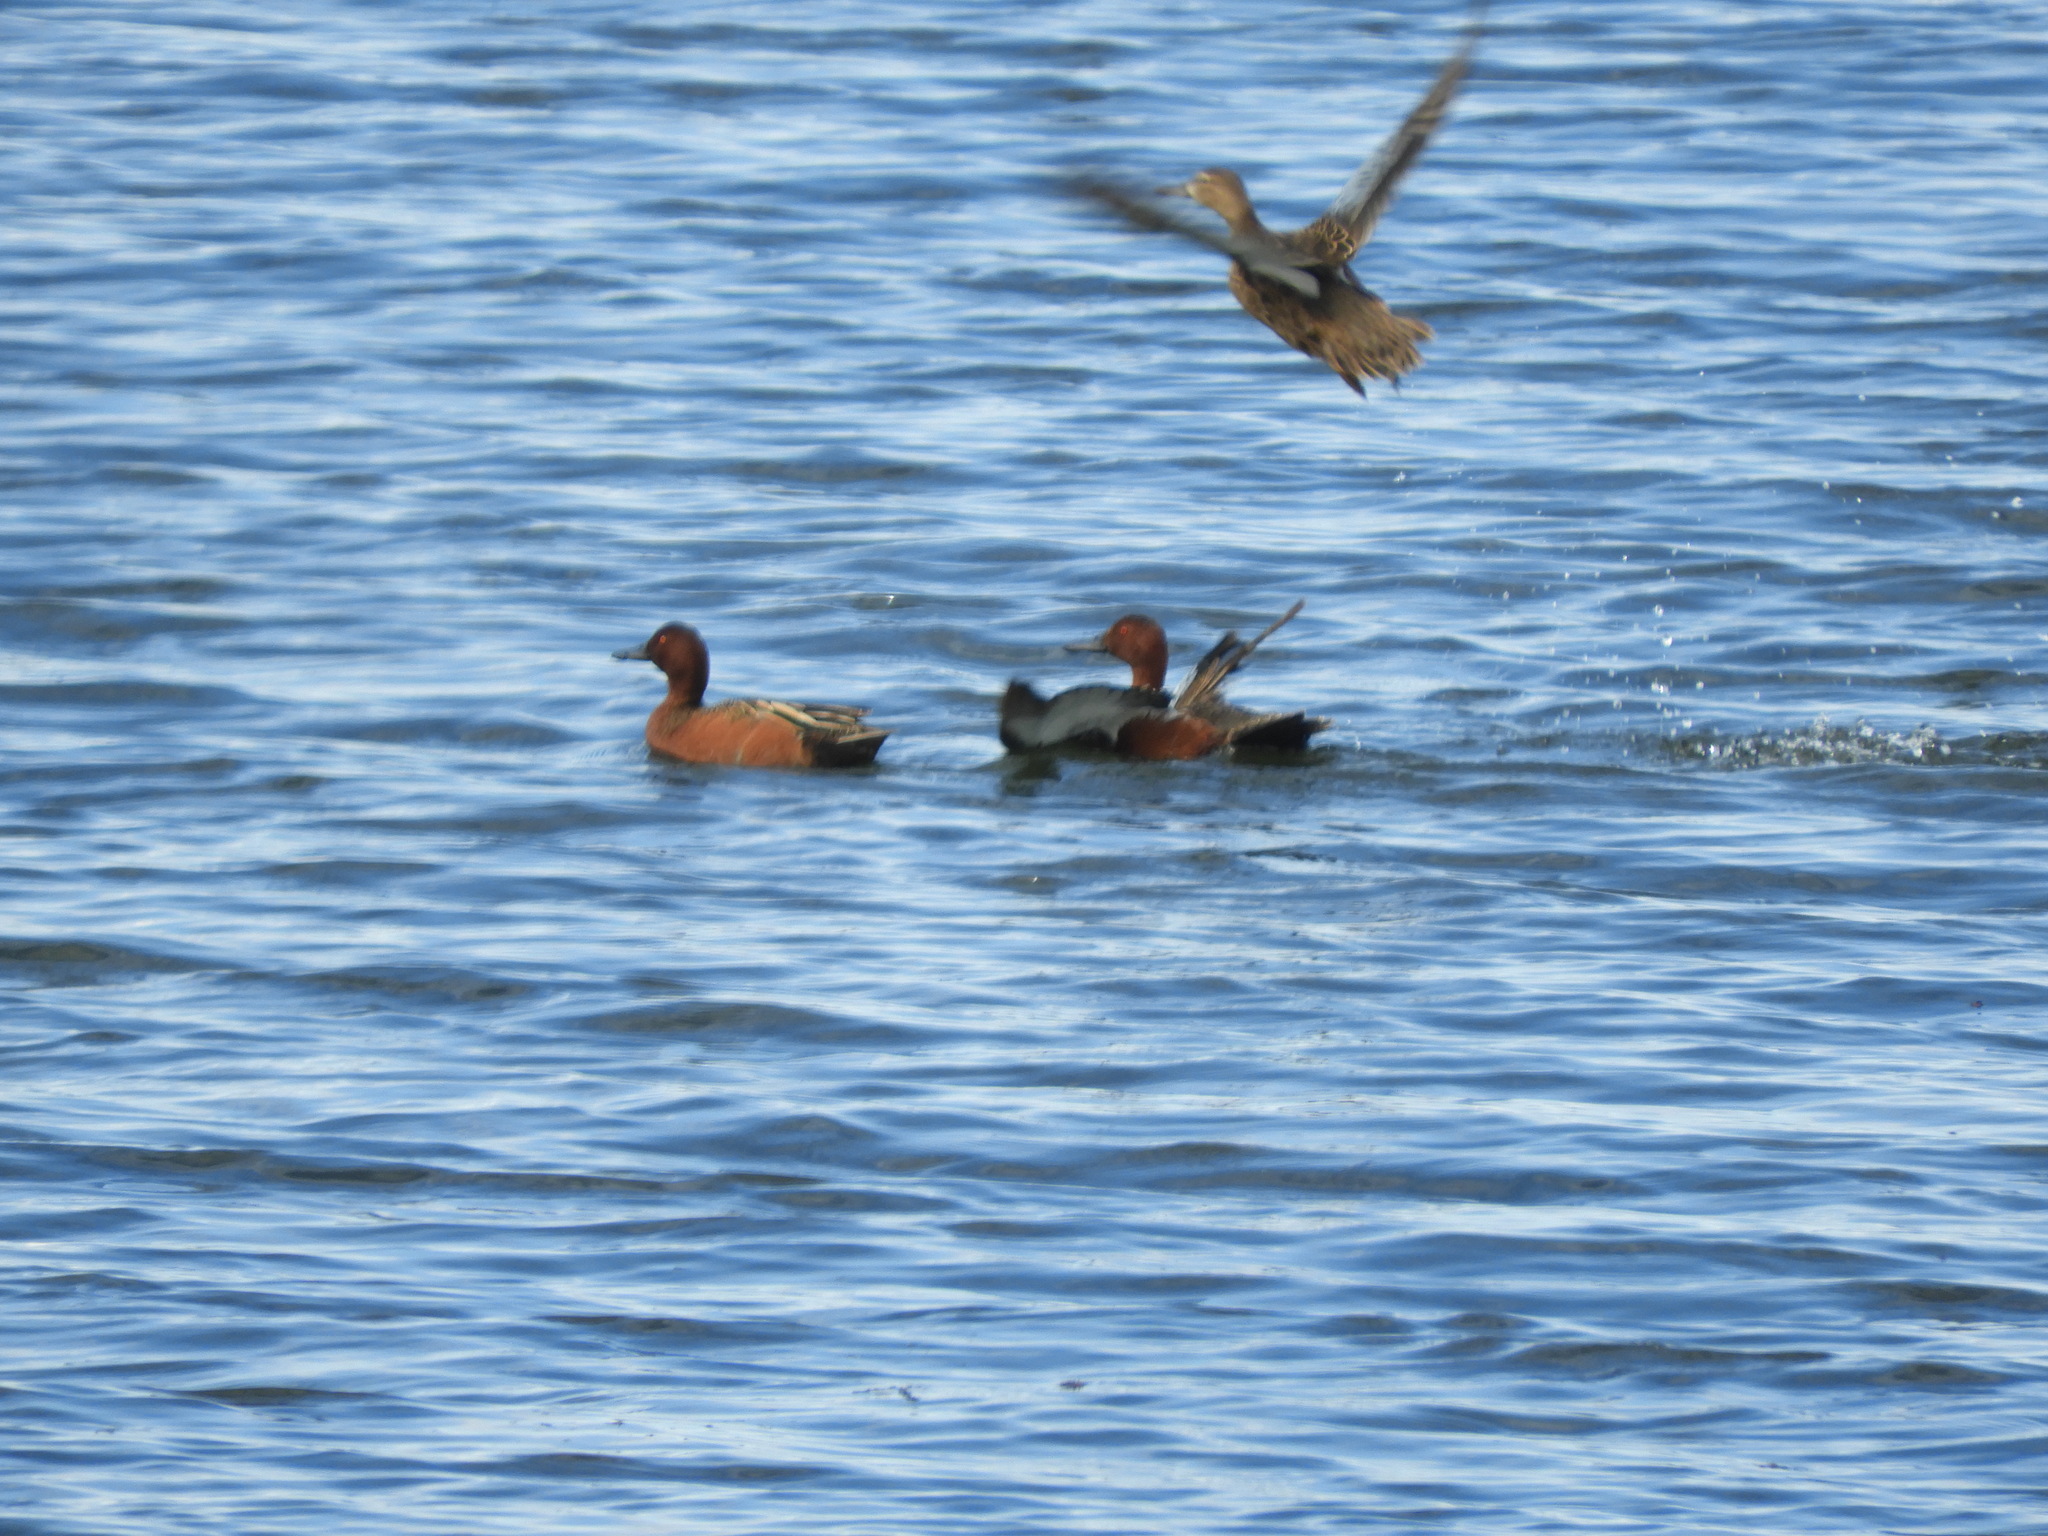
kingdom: Animalia
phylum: Chordata
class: Aves
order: Anseriformes
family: Anatidae
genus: Spatula
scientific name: Spatula cyanoptera
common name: Cinnamon teal
